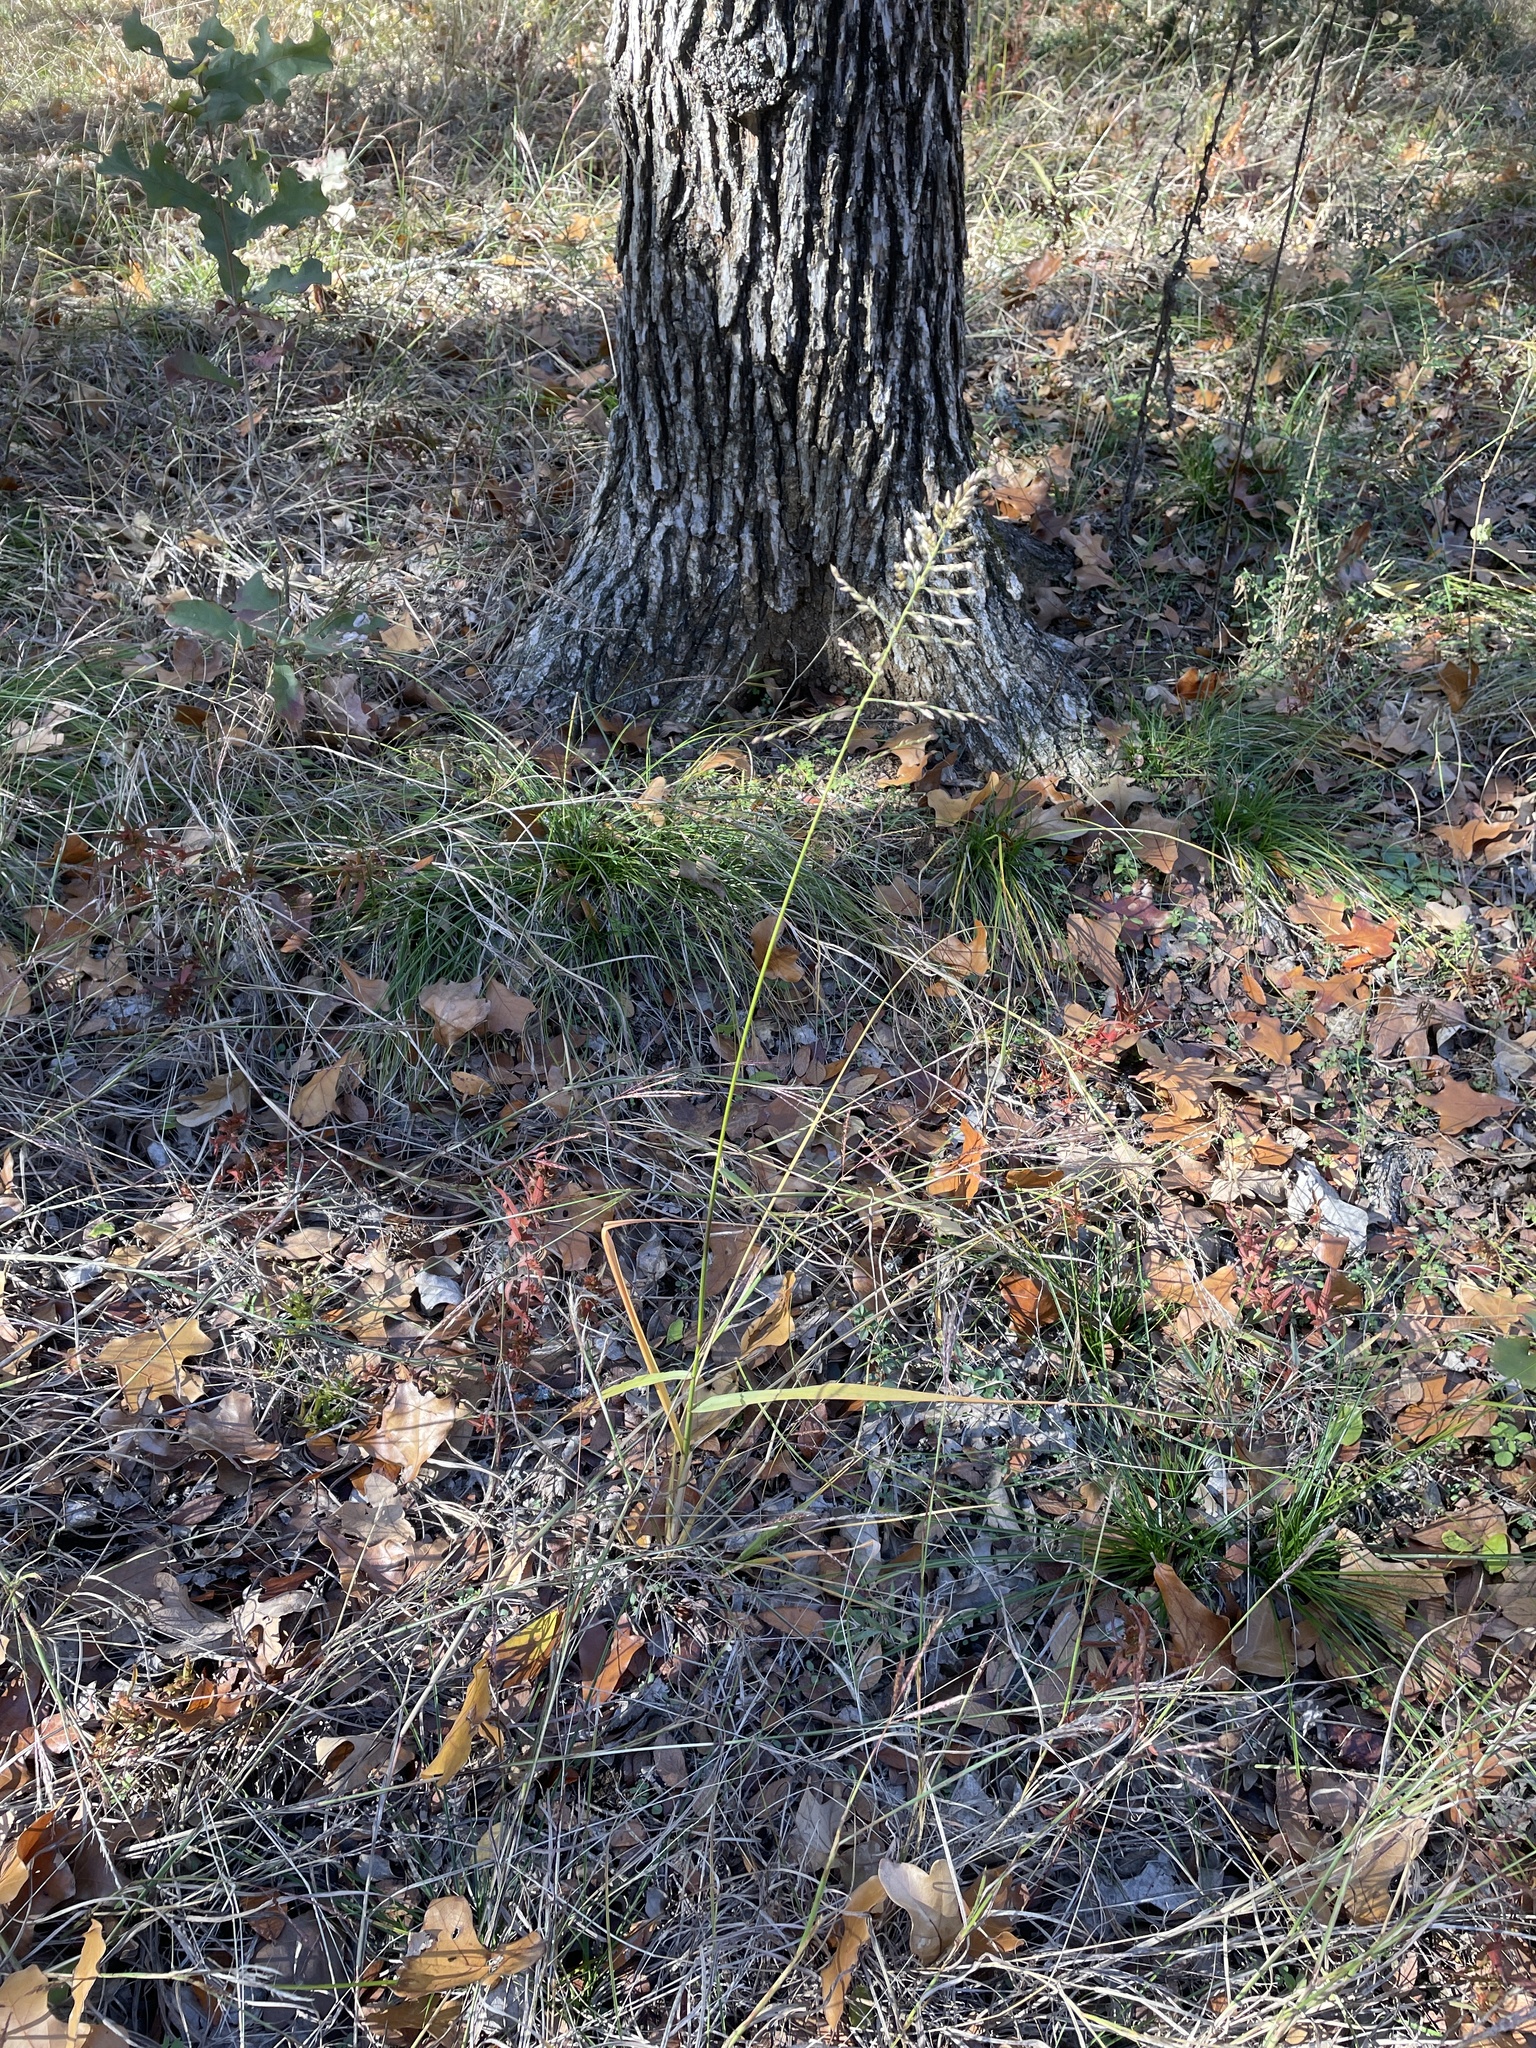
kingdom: Plantae
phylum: Tracheophyta
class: Liliopsida
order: Poales
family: Poaceae
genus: Tridens
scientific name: Tridens flavus
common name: Purpletop
